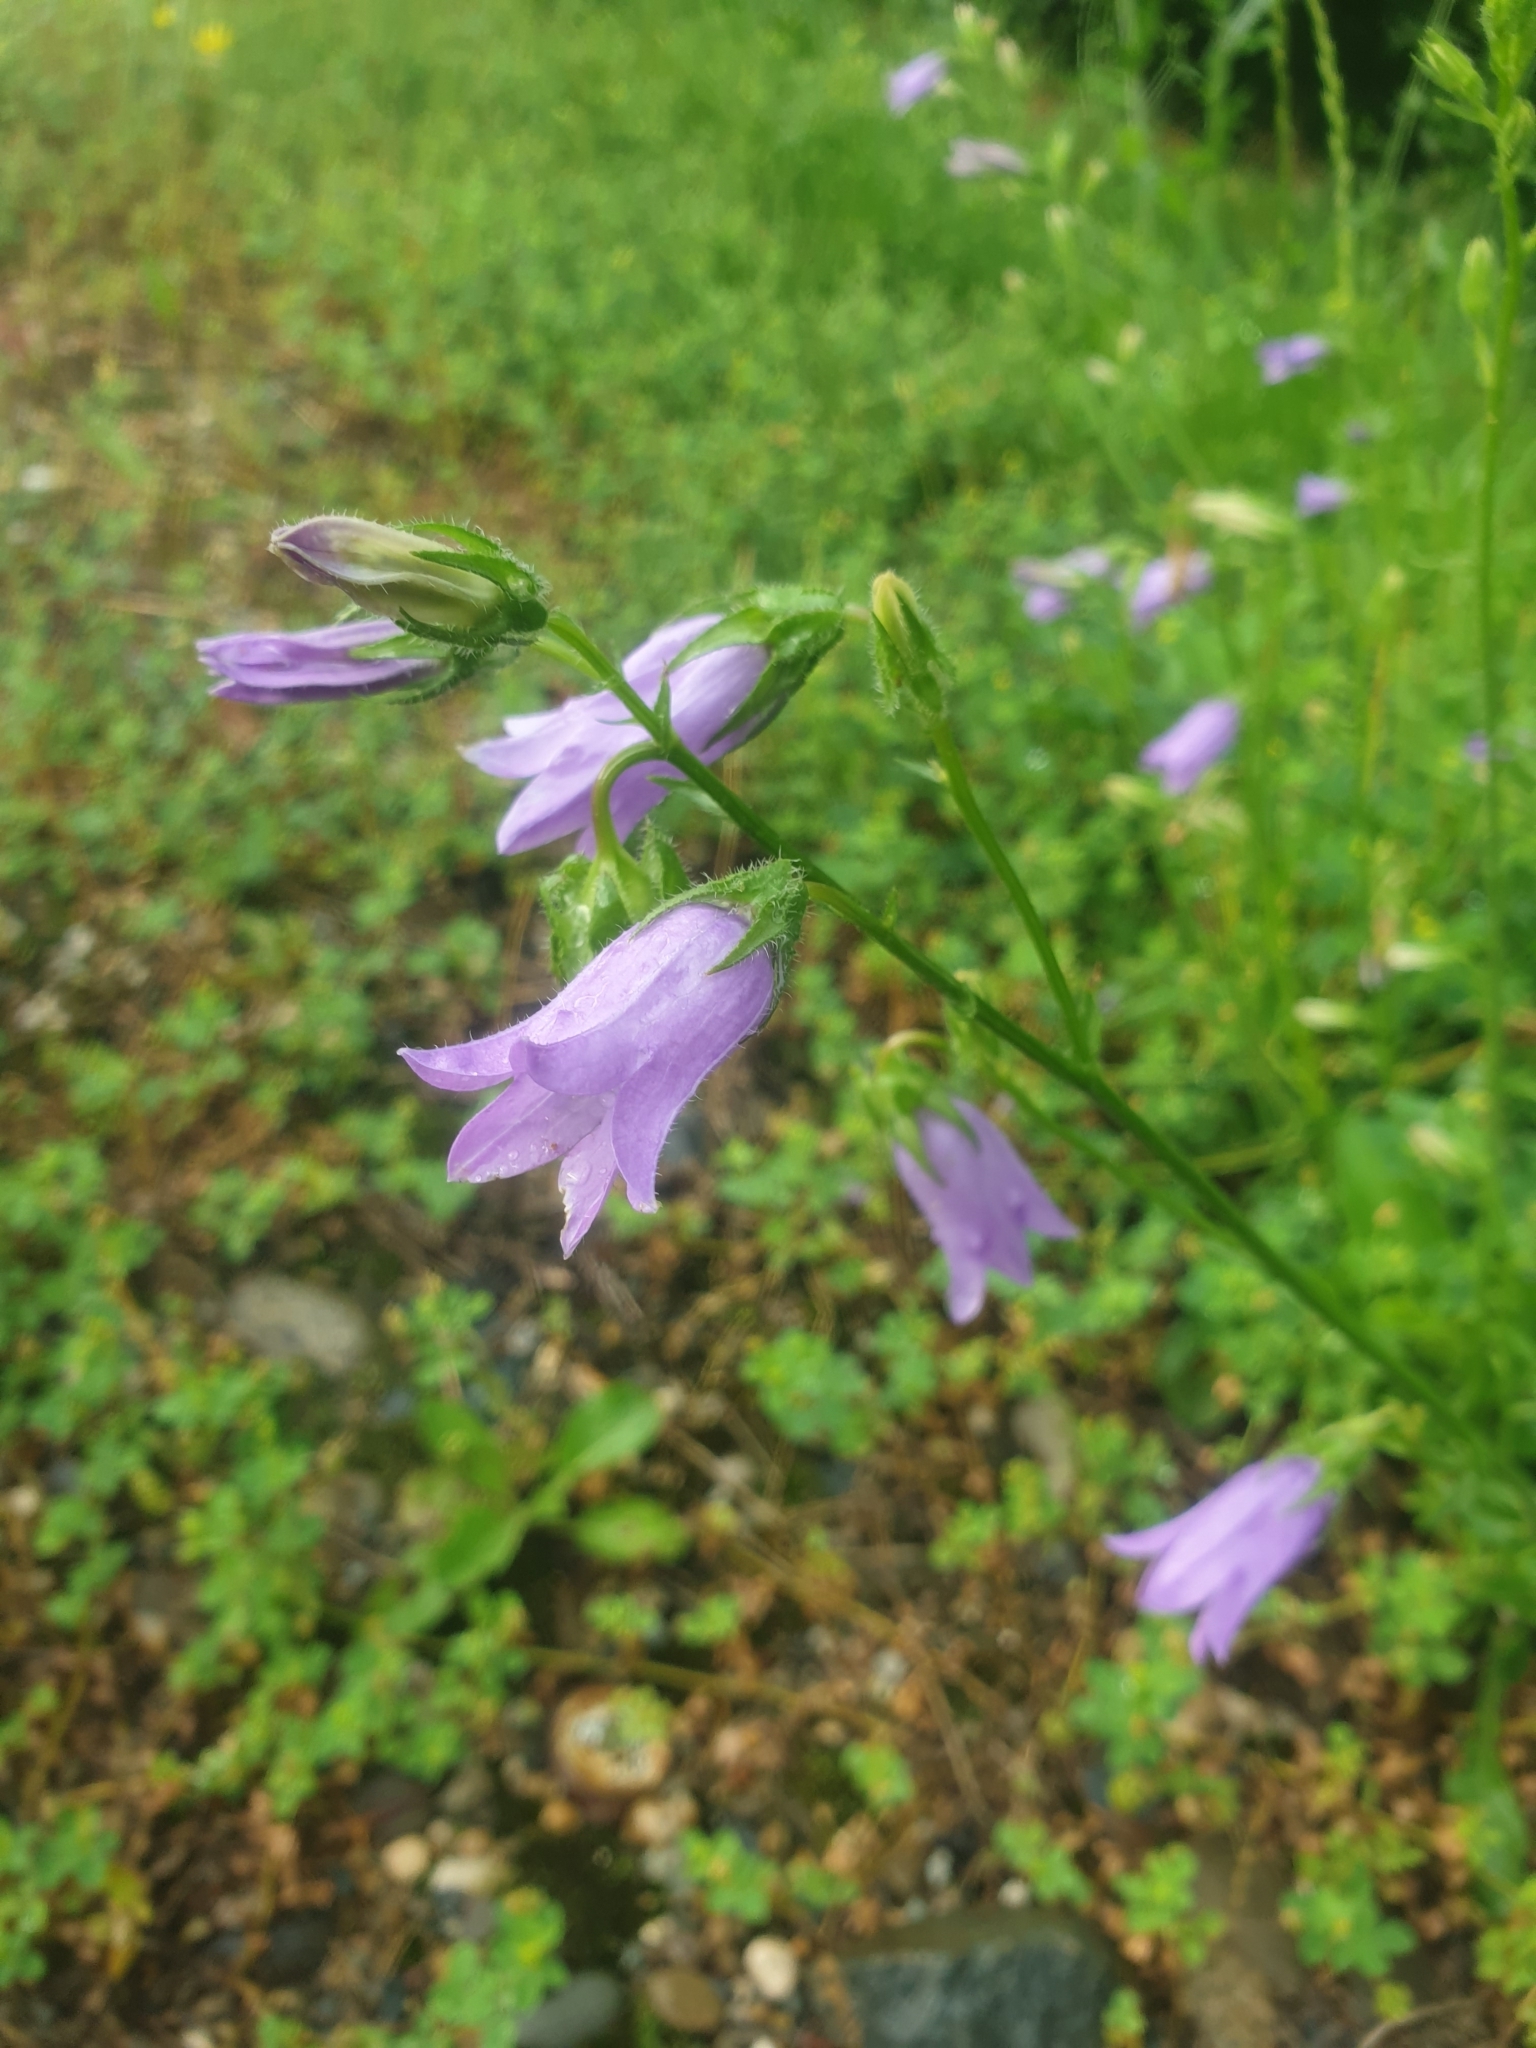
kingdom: Plantae
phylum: Tracheophyta
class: Magnoliopsida
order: Asterales
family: Campanulaceae
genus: Campanula
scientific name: Campanula sibirica
